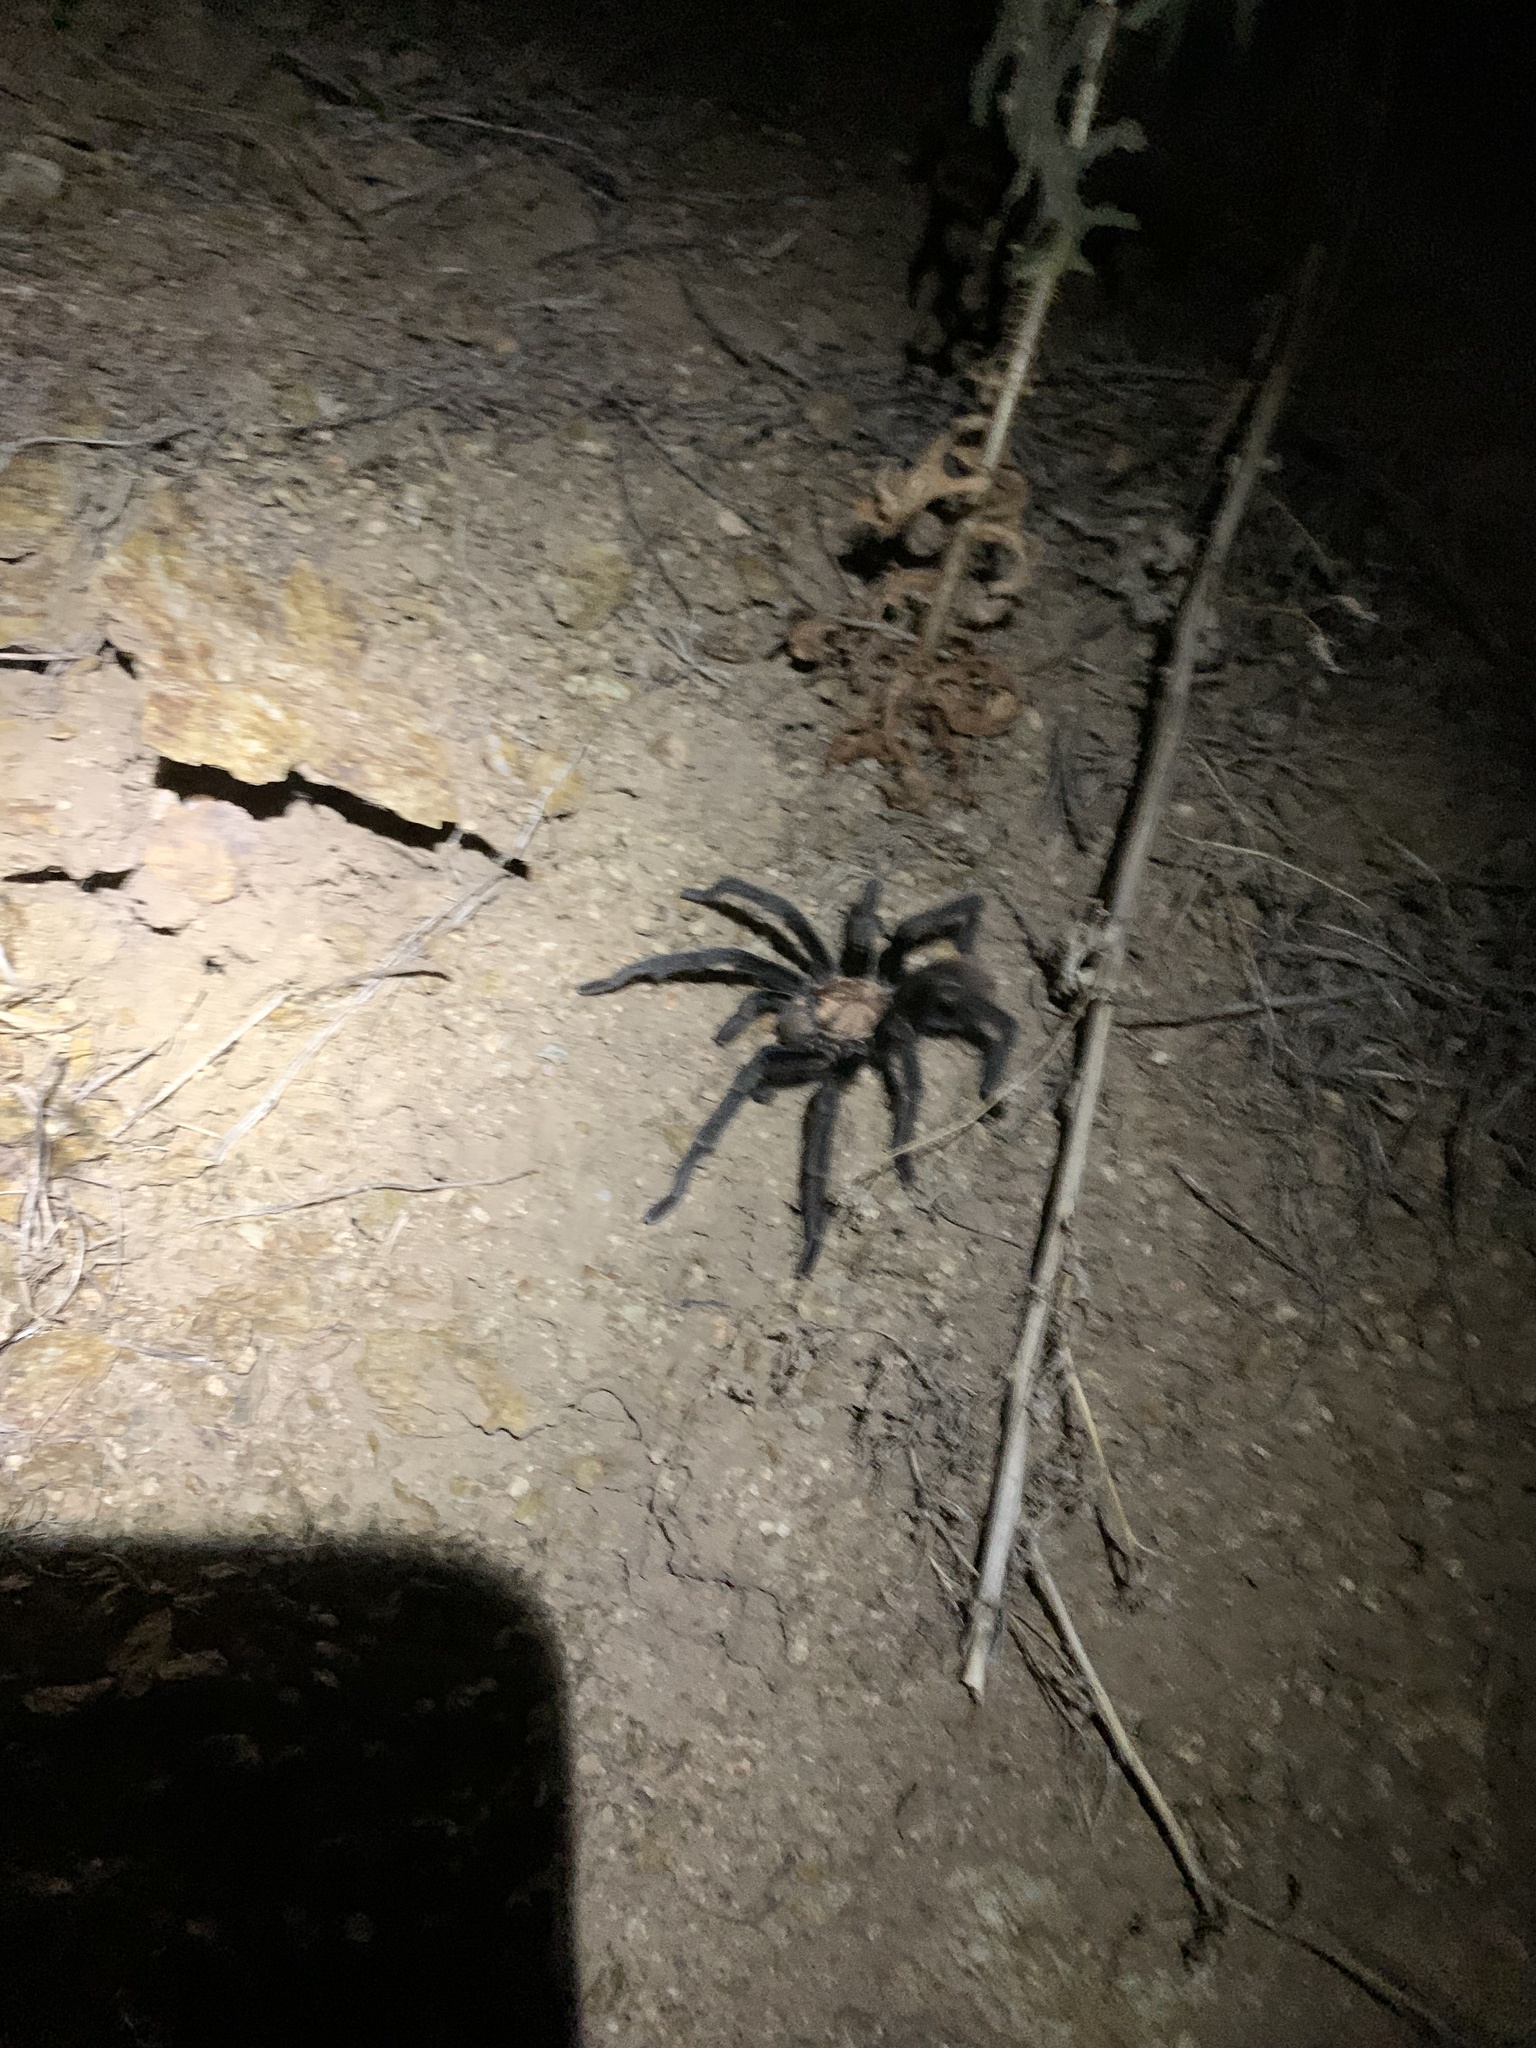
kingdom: Animalia
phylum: Arthropoda
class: Arachnida
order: Araneae
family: Theraphosidae
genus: Aphonopelma
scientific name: Aphonopelma iodius
